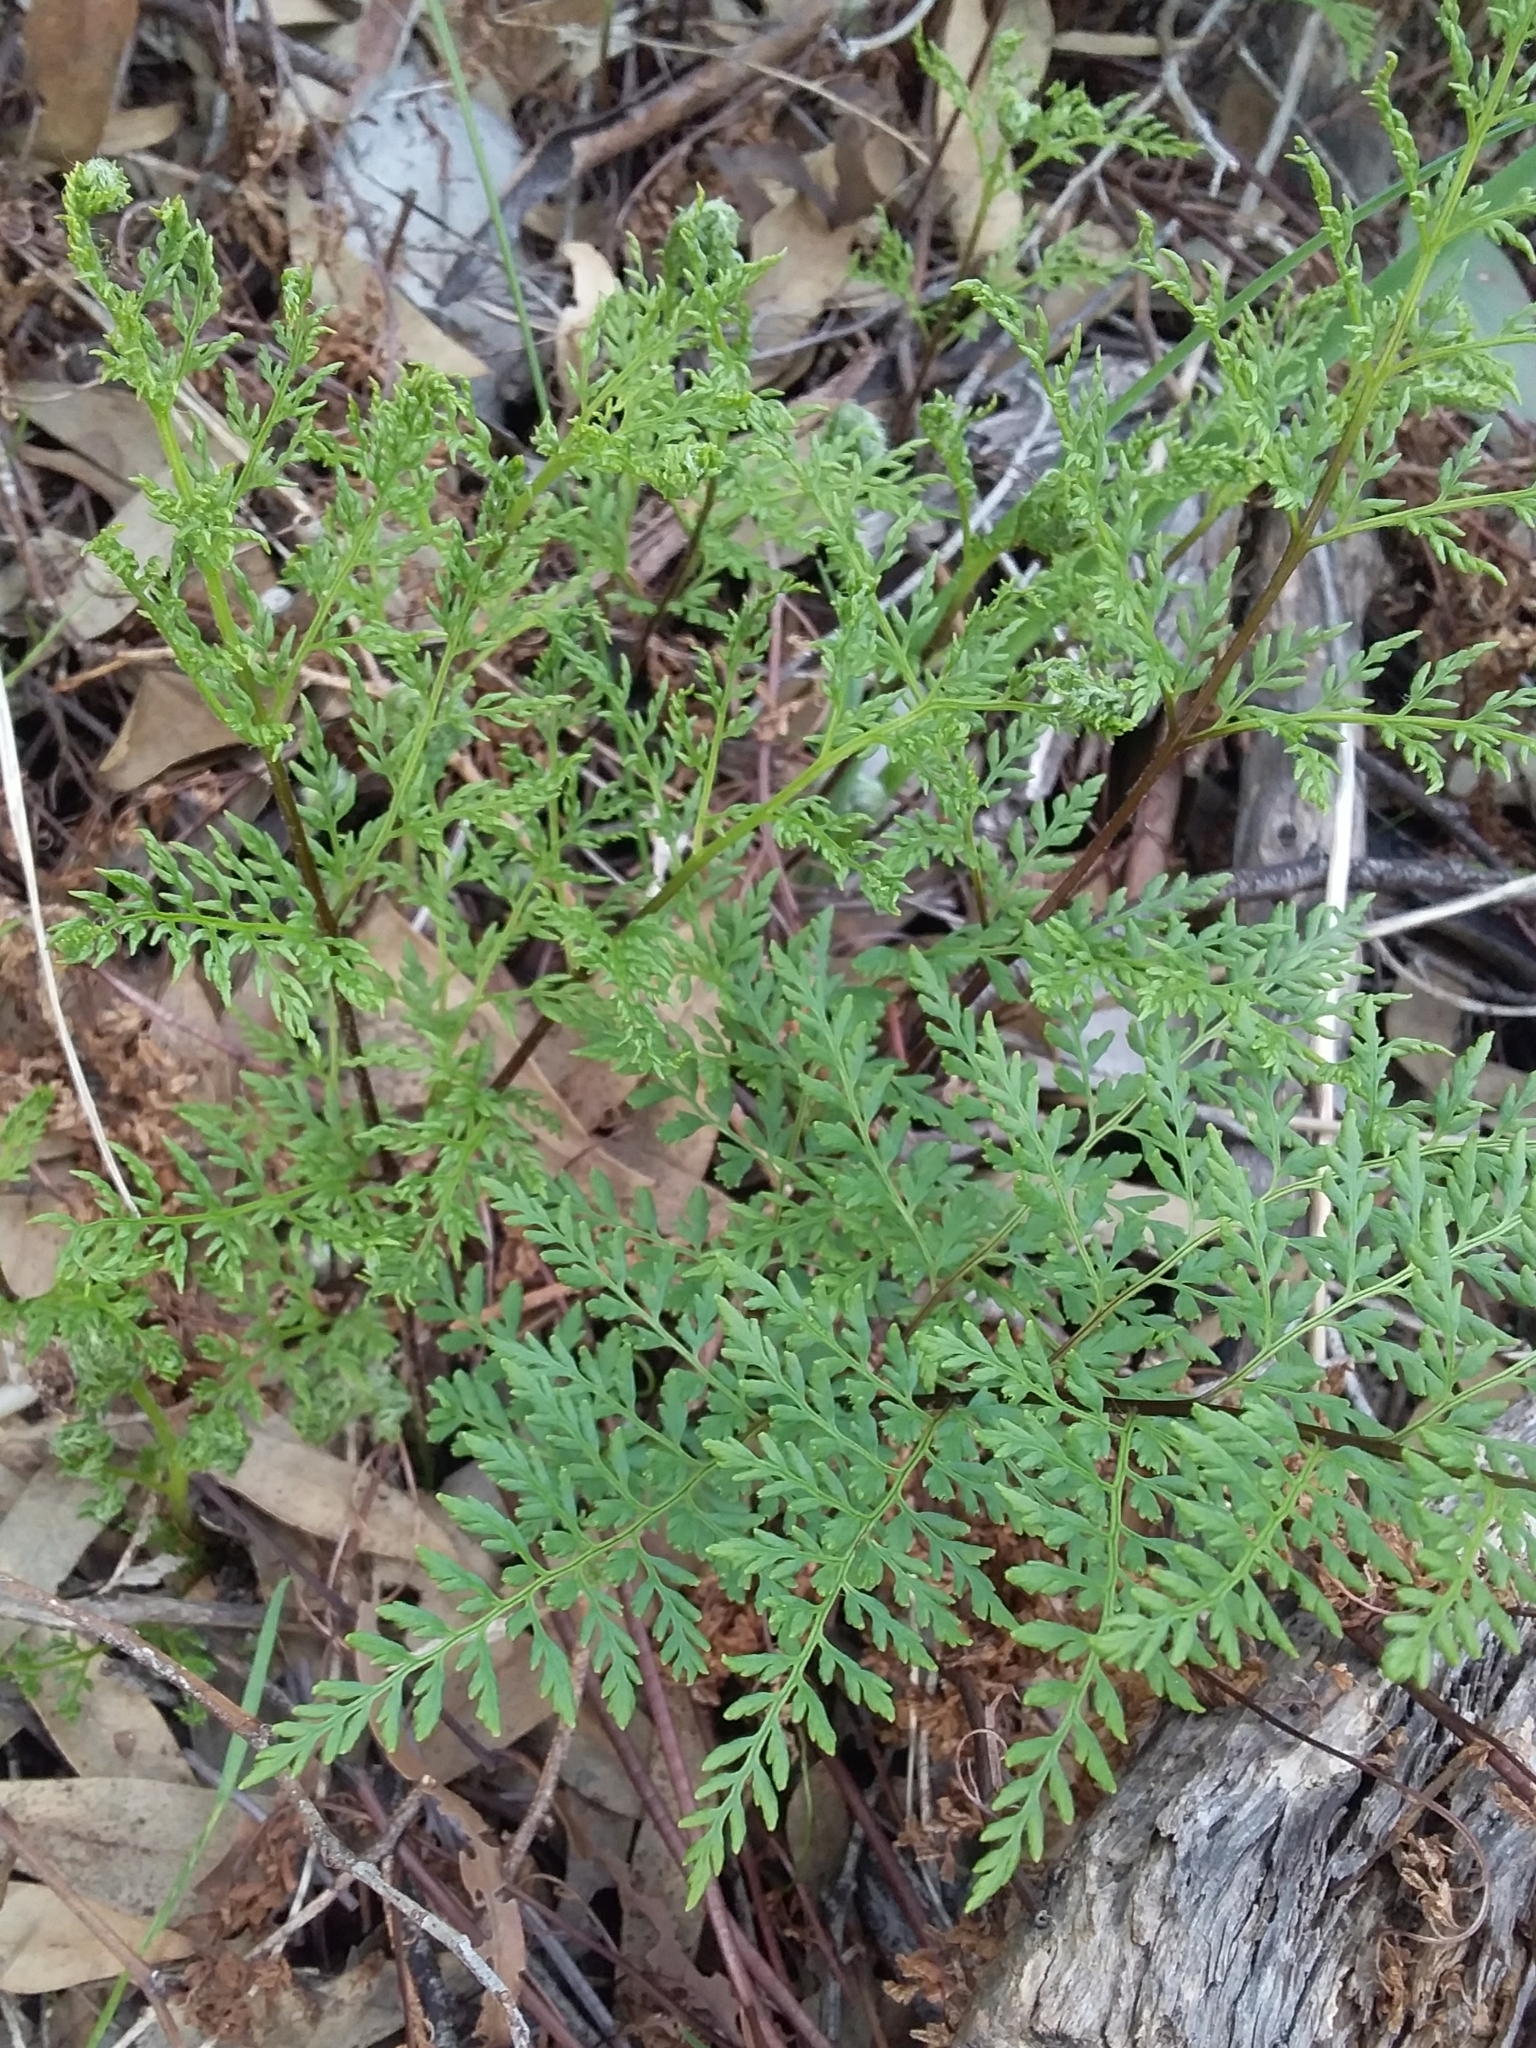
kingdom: Plantae
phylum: Tracheophyta
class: Polypodiopsida
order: Polypodiales
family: Pteridaceae
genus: Cheilanthes
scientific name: Cheilanthes austrotenuifolia
